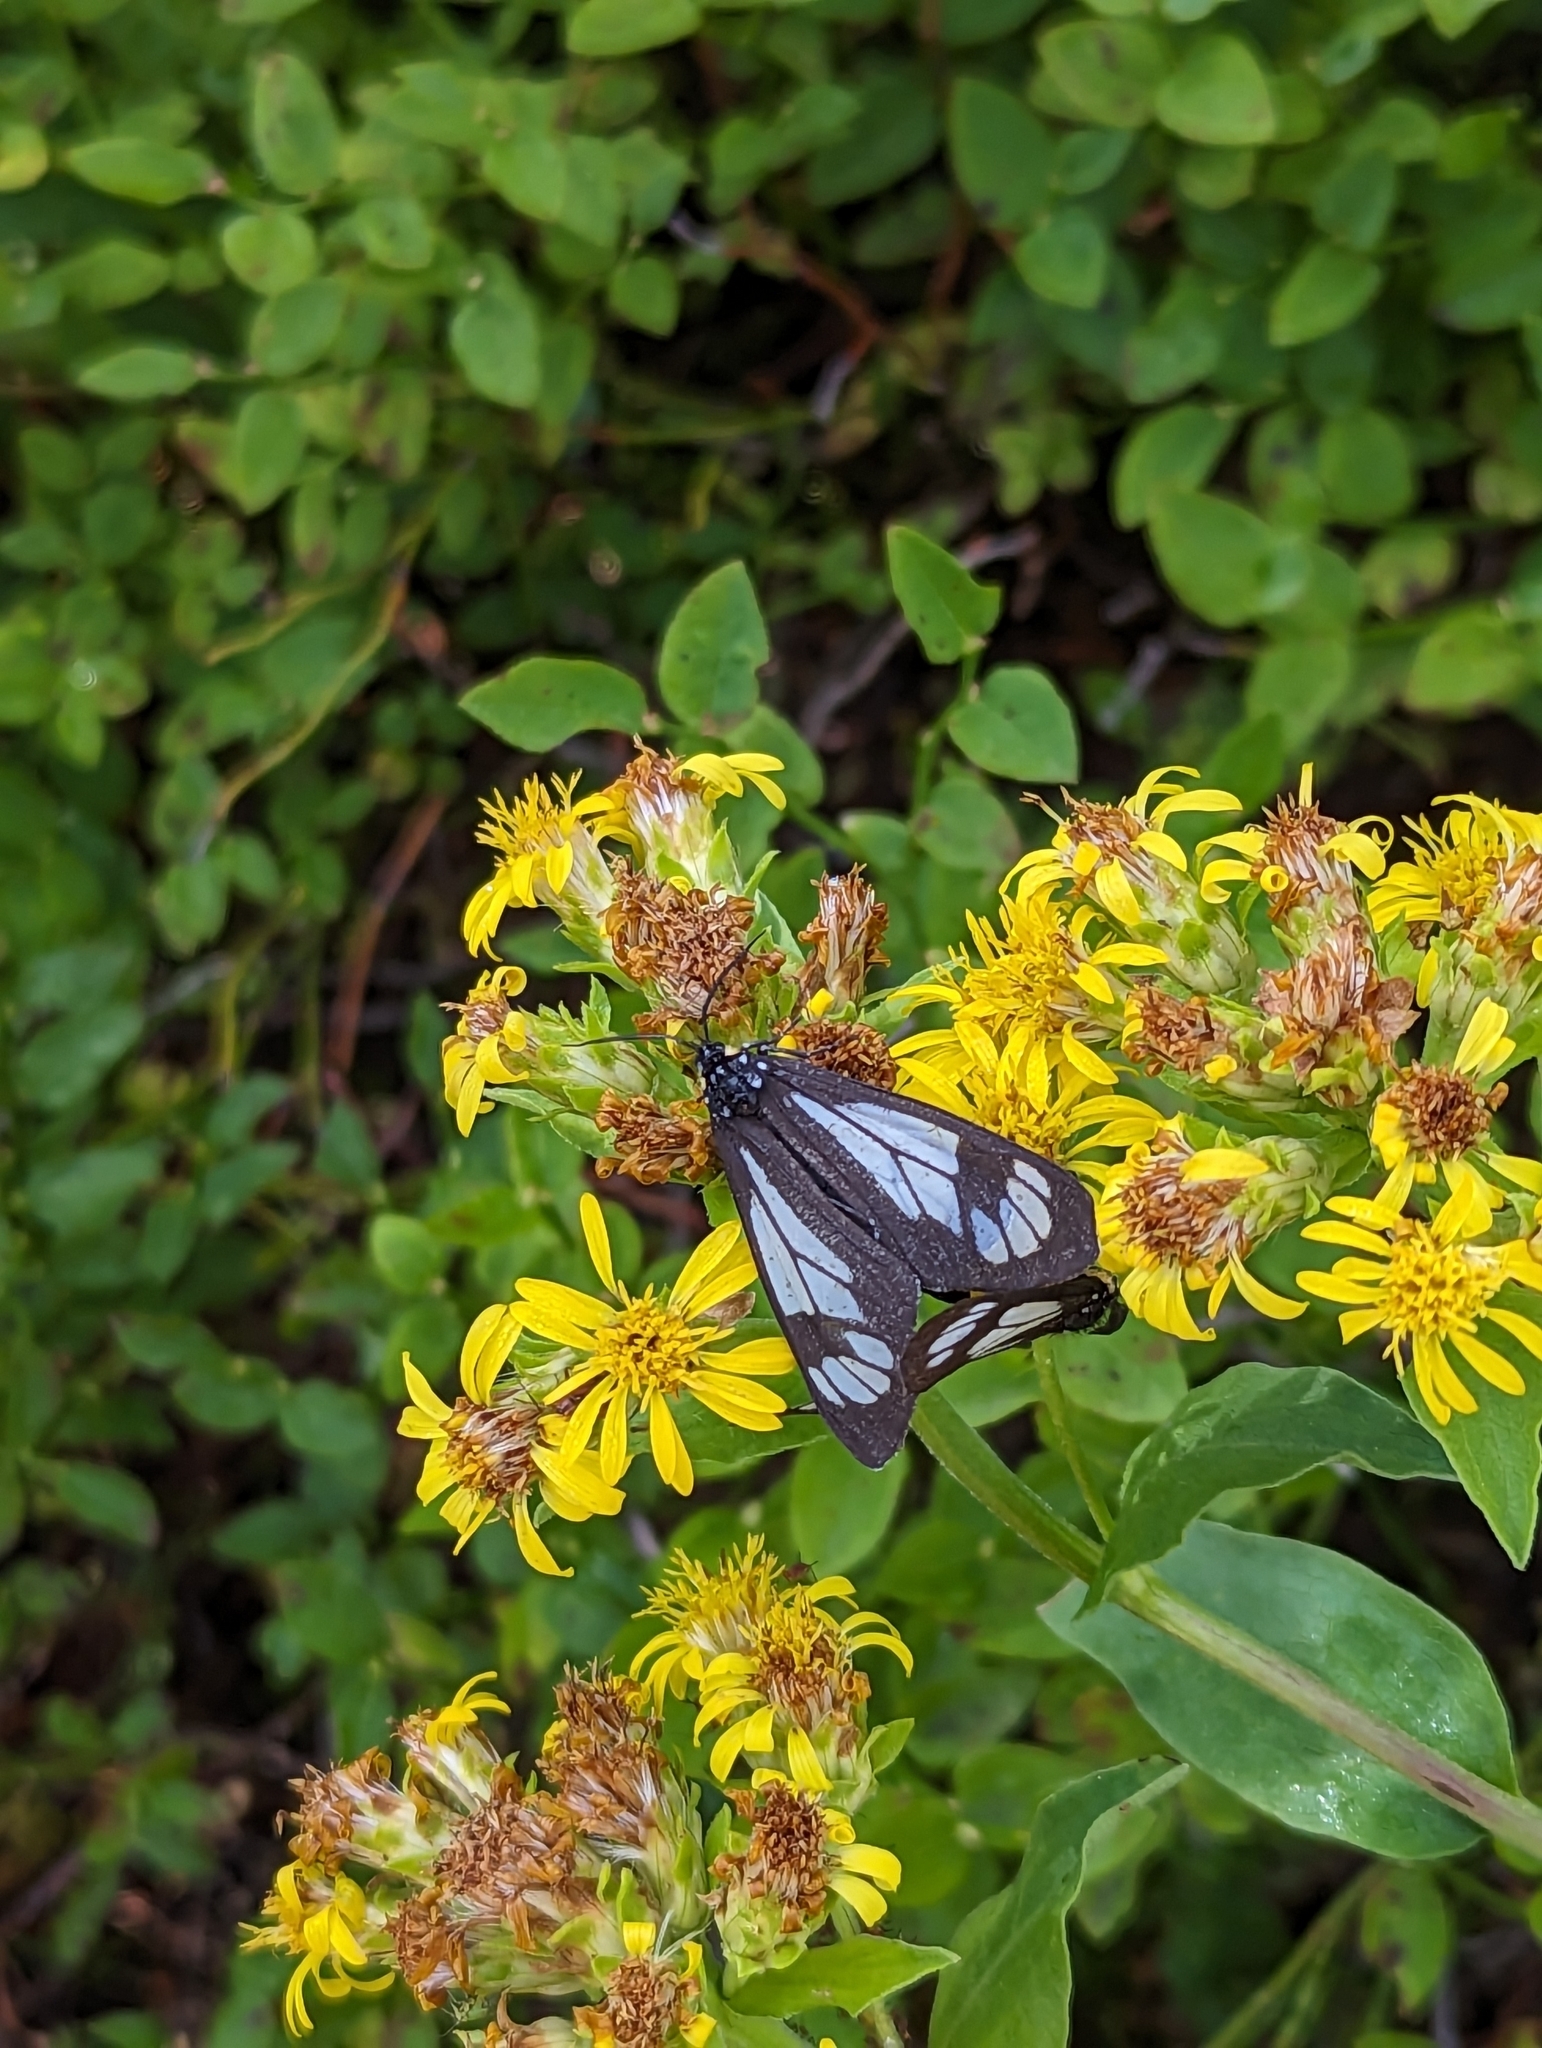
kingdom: Animalia
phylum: Arthropoda
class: Insecta
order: Lepidoptera
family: Erebidae
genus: Gnophaela
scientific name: Gnophaela vermiculata
